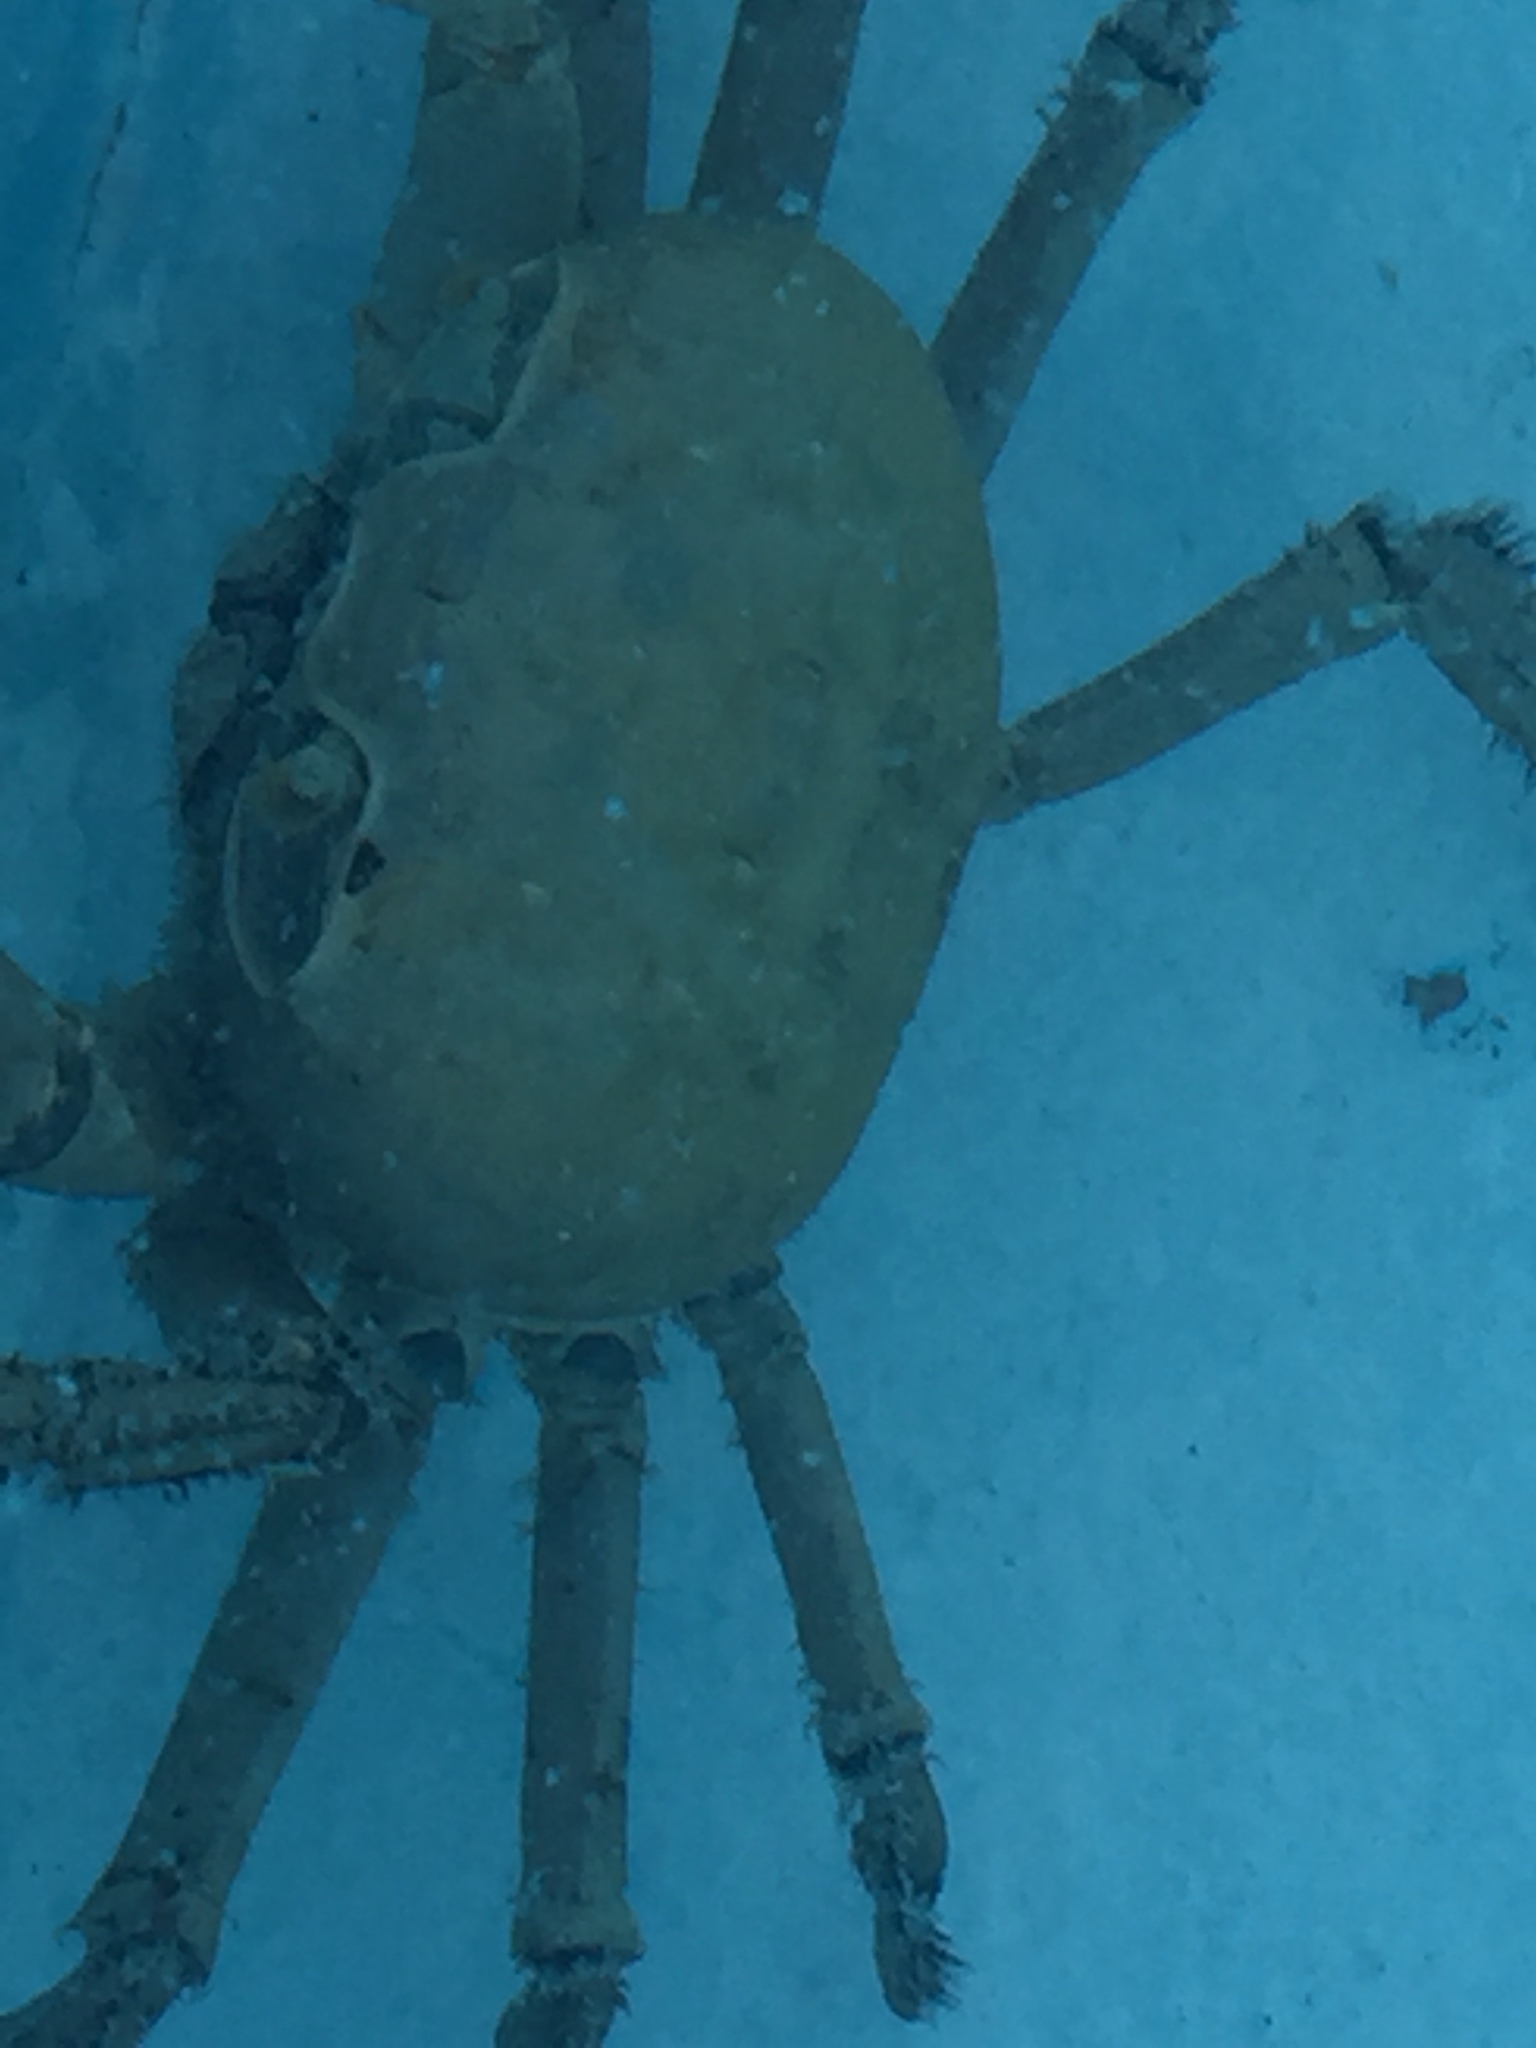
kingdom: Animalia
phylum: Arthropoda
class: Malacostraca
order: Decapoda
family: Gecarcinidae
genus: Cardisoma
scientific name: Cardisoma guanhumi
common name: Great land crab
